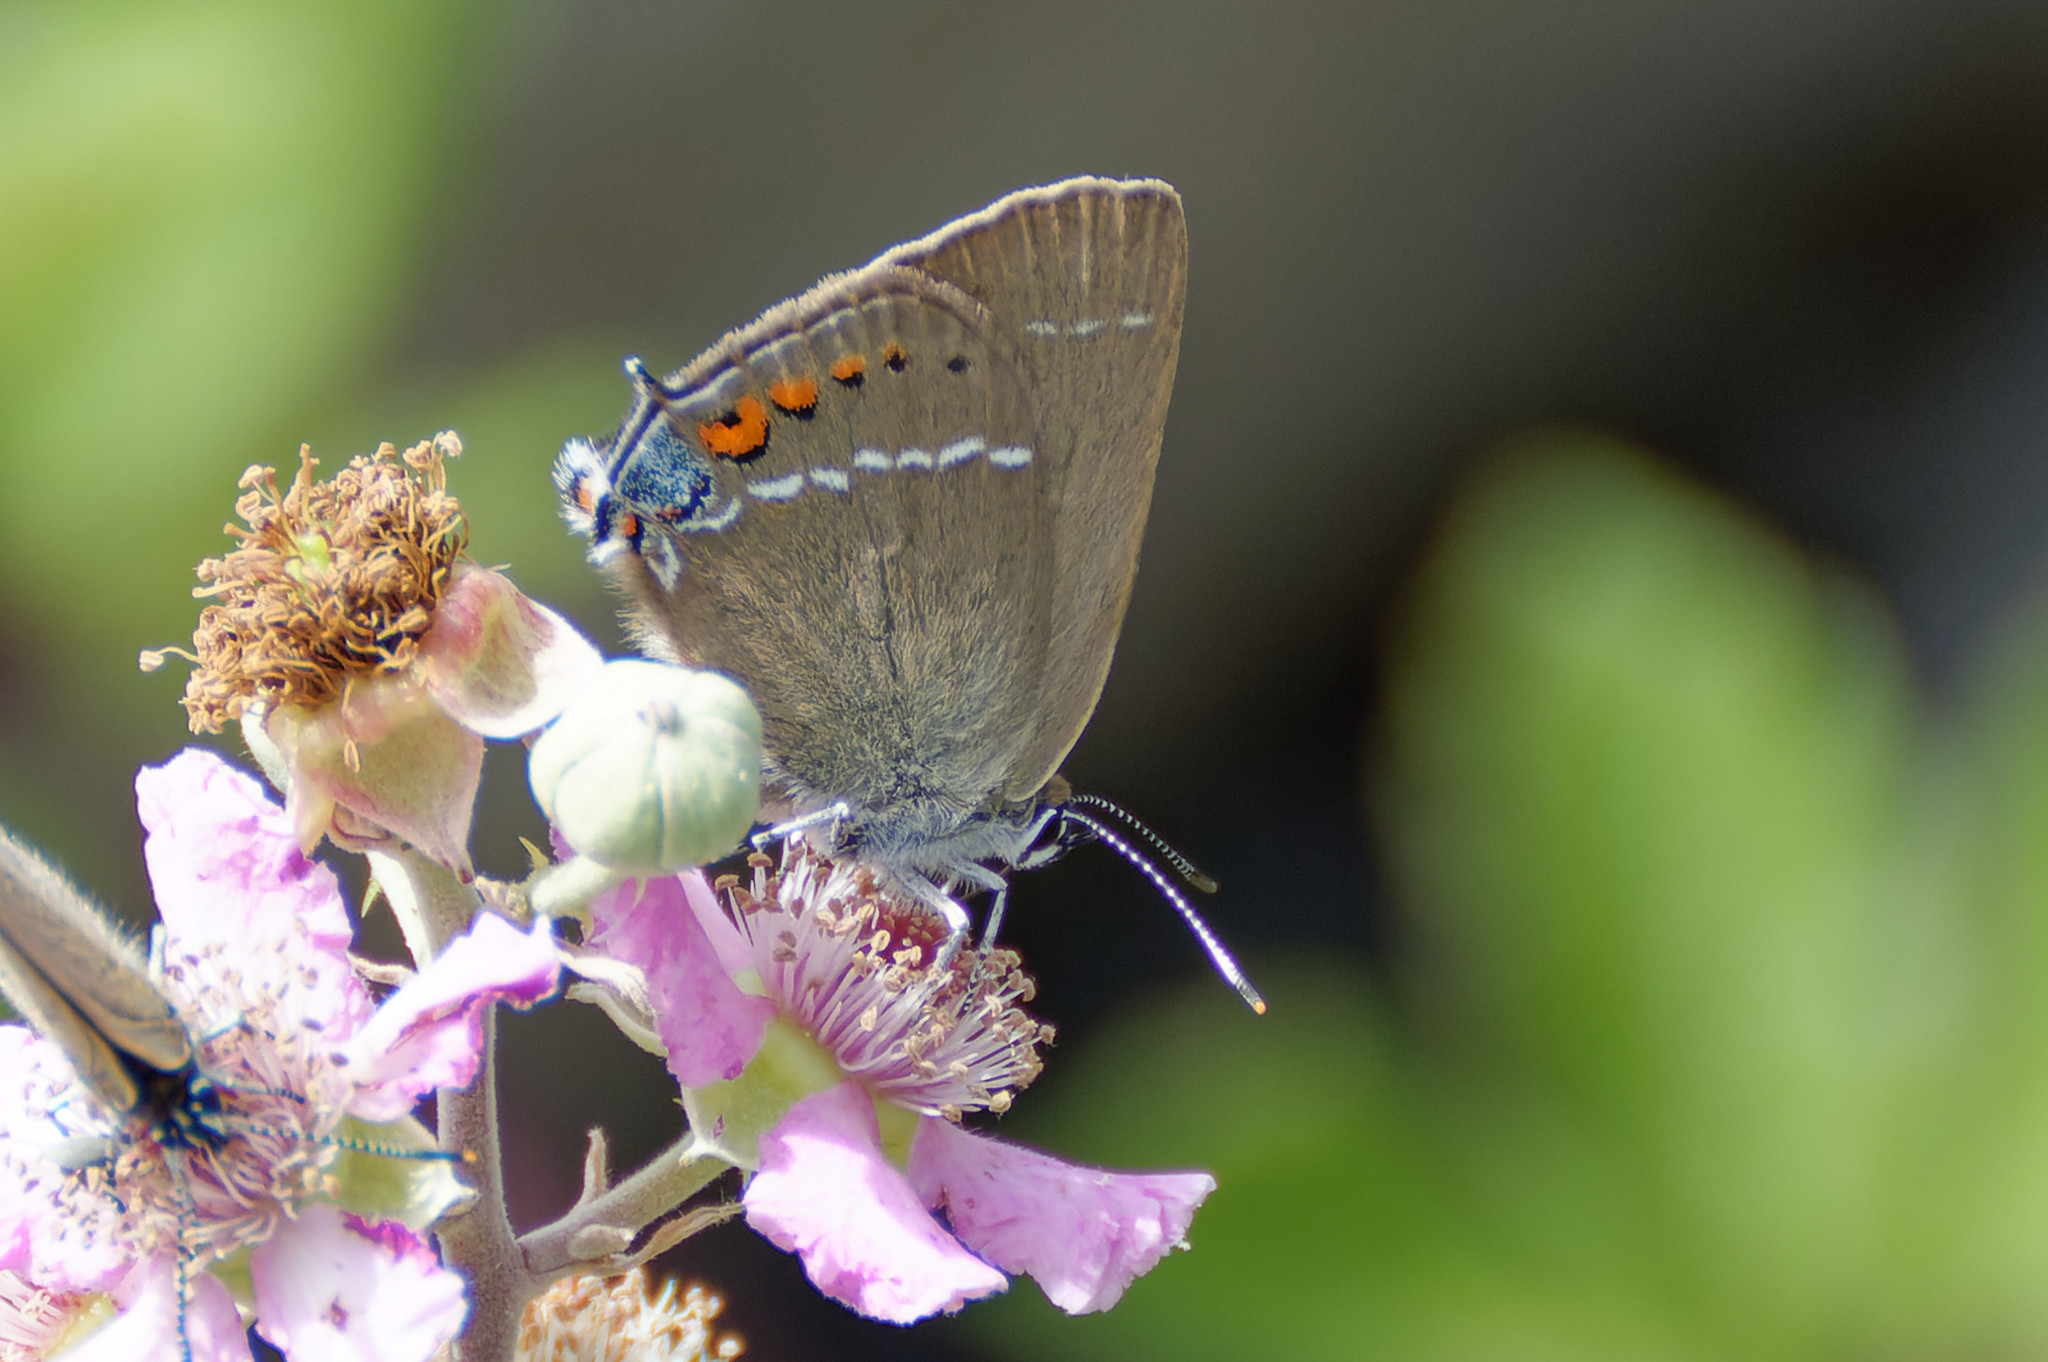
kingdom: Animalia
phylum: Arthropoda
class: Insecta
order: Lepidoptera
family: Lycaenidae
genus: Tuttiola
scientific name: Tuttiola spini
